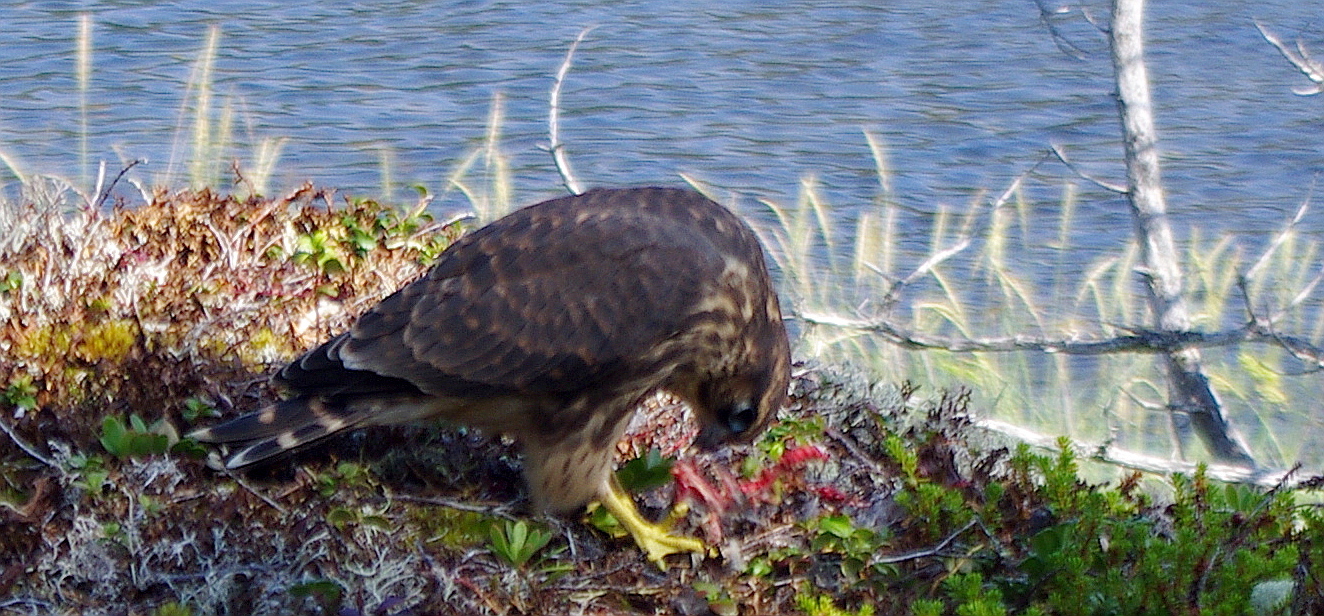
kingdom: Animalia
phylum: Chordata
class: Aves
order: Falconiformes
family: Falconidae
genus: Falco
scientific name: Falco columbarius
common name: Merlin
